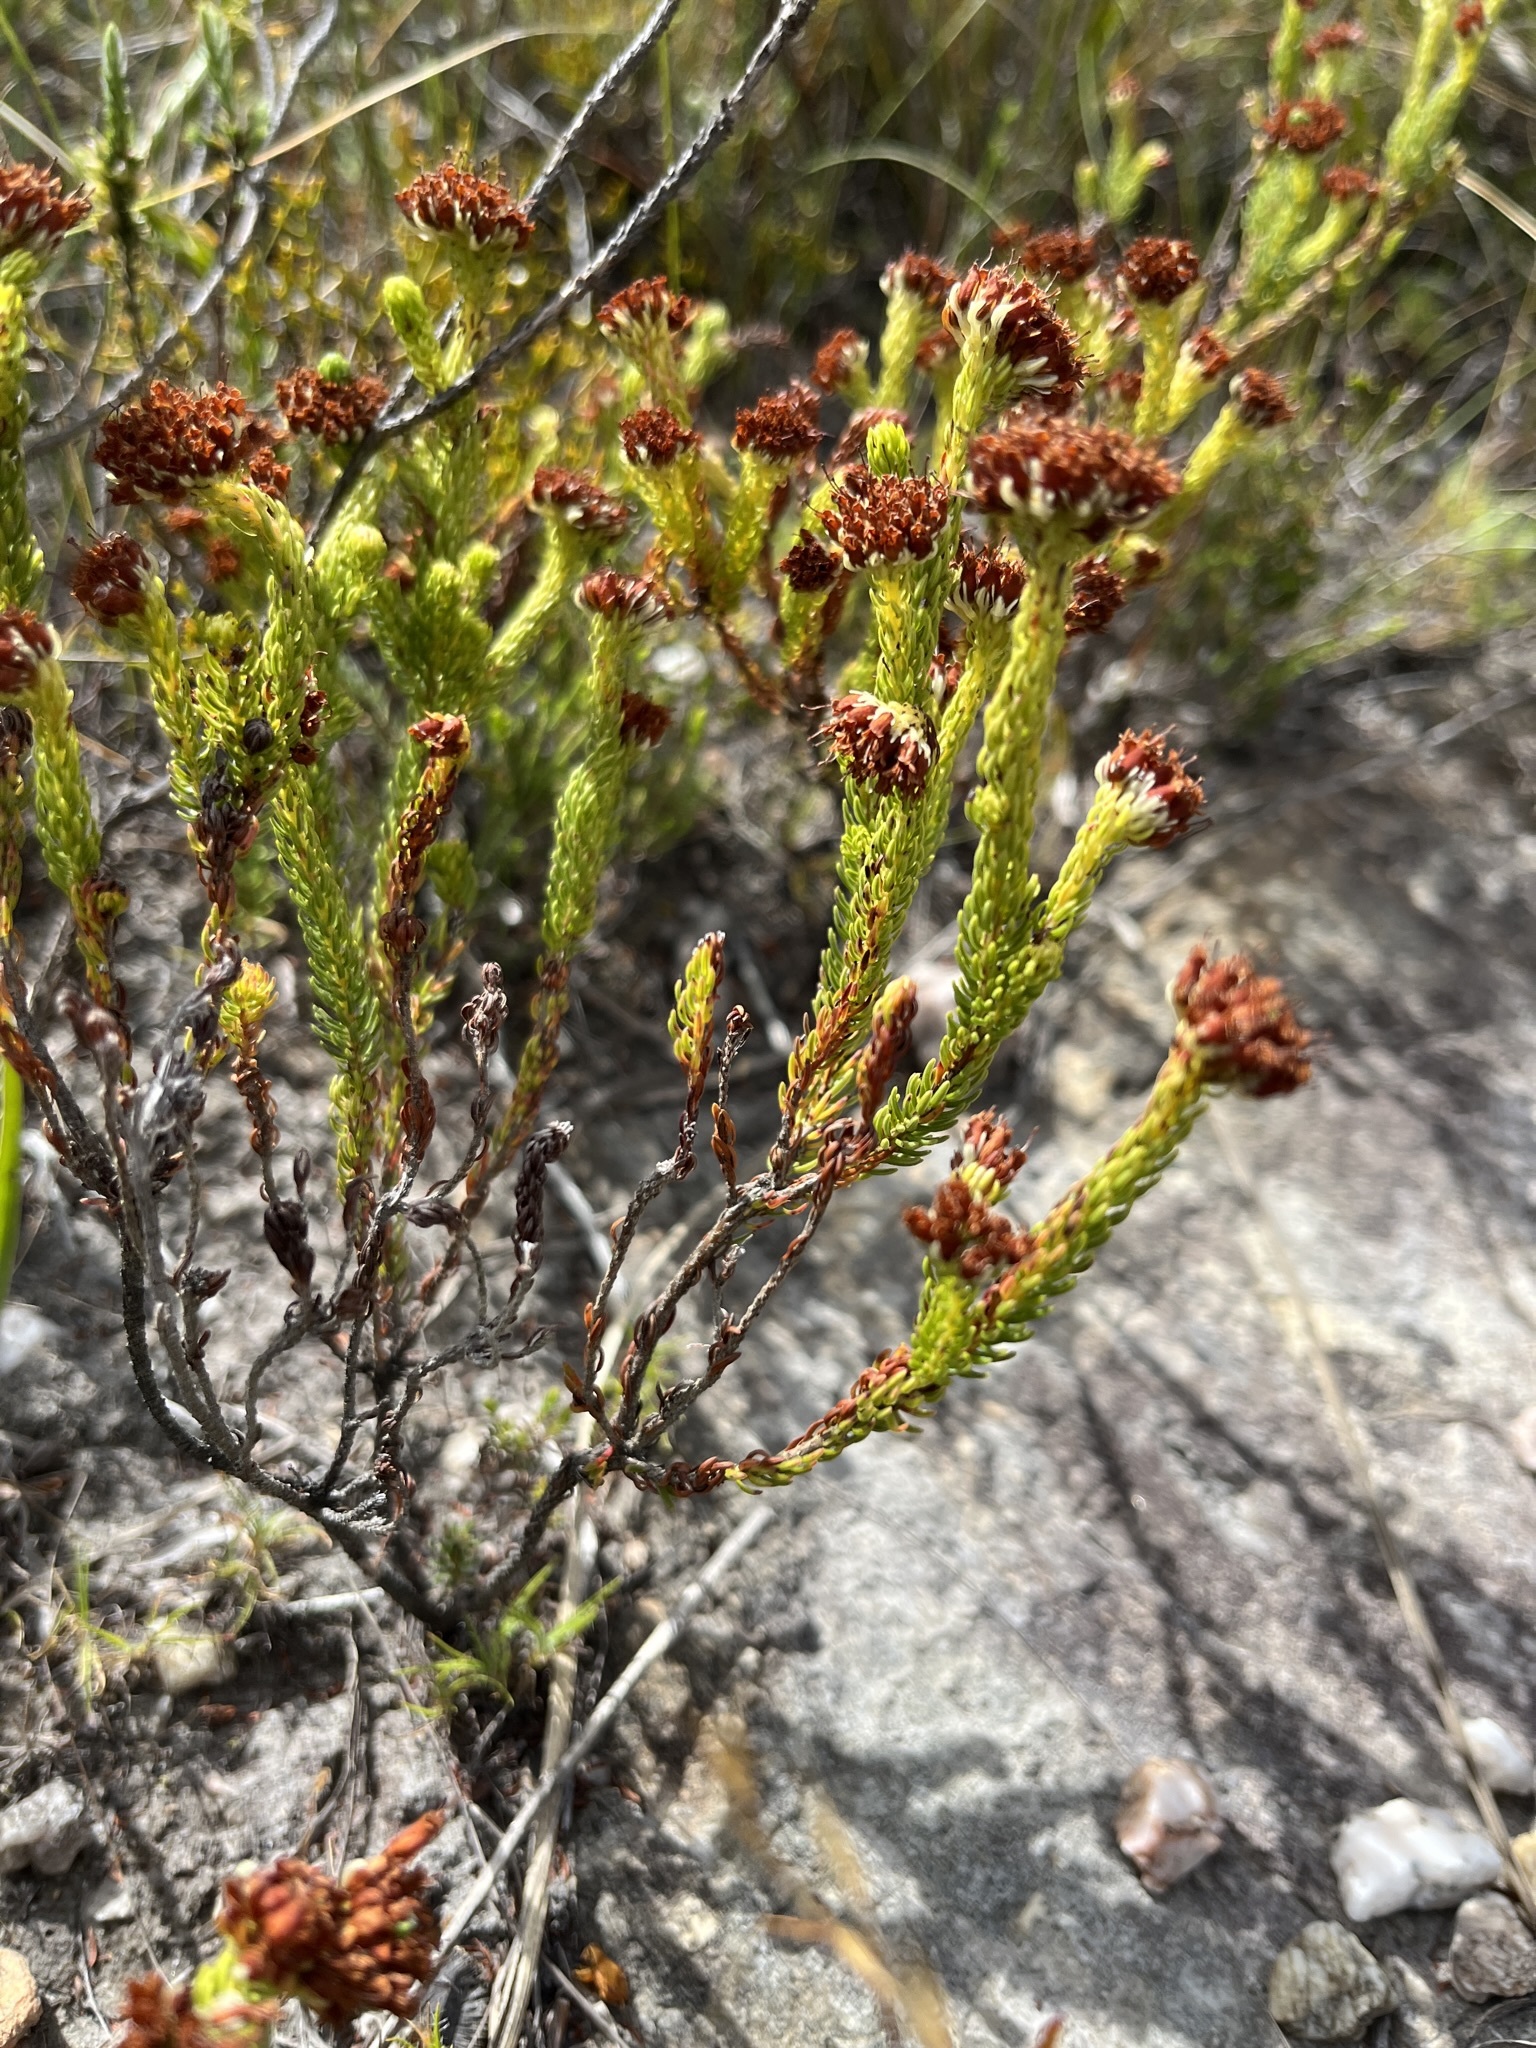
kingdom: Plantae
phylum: Tracheophyta
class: Magnoliopsida
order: Ericales
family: Ericaceae
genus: Erica
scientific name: Erica bruniifolia
